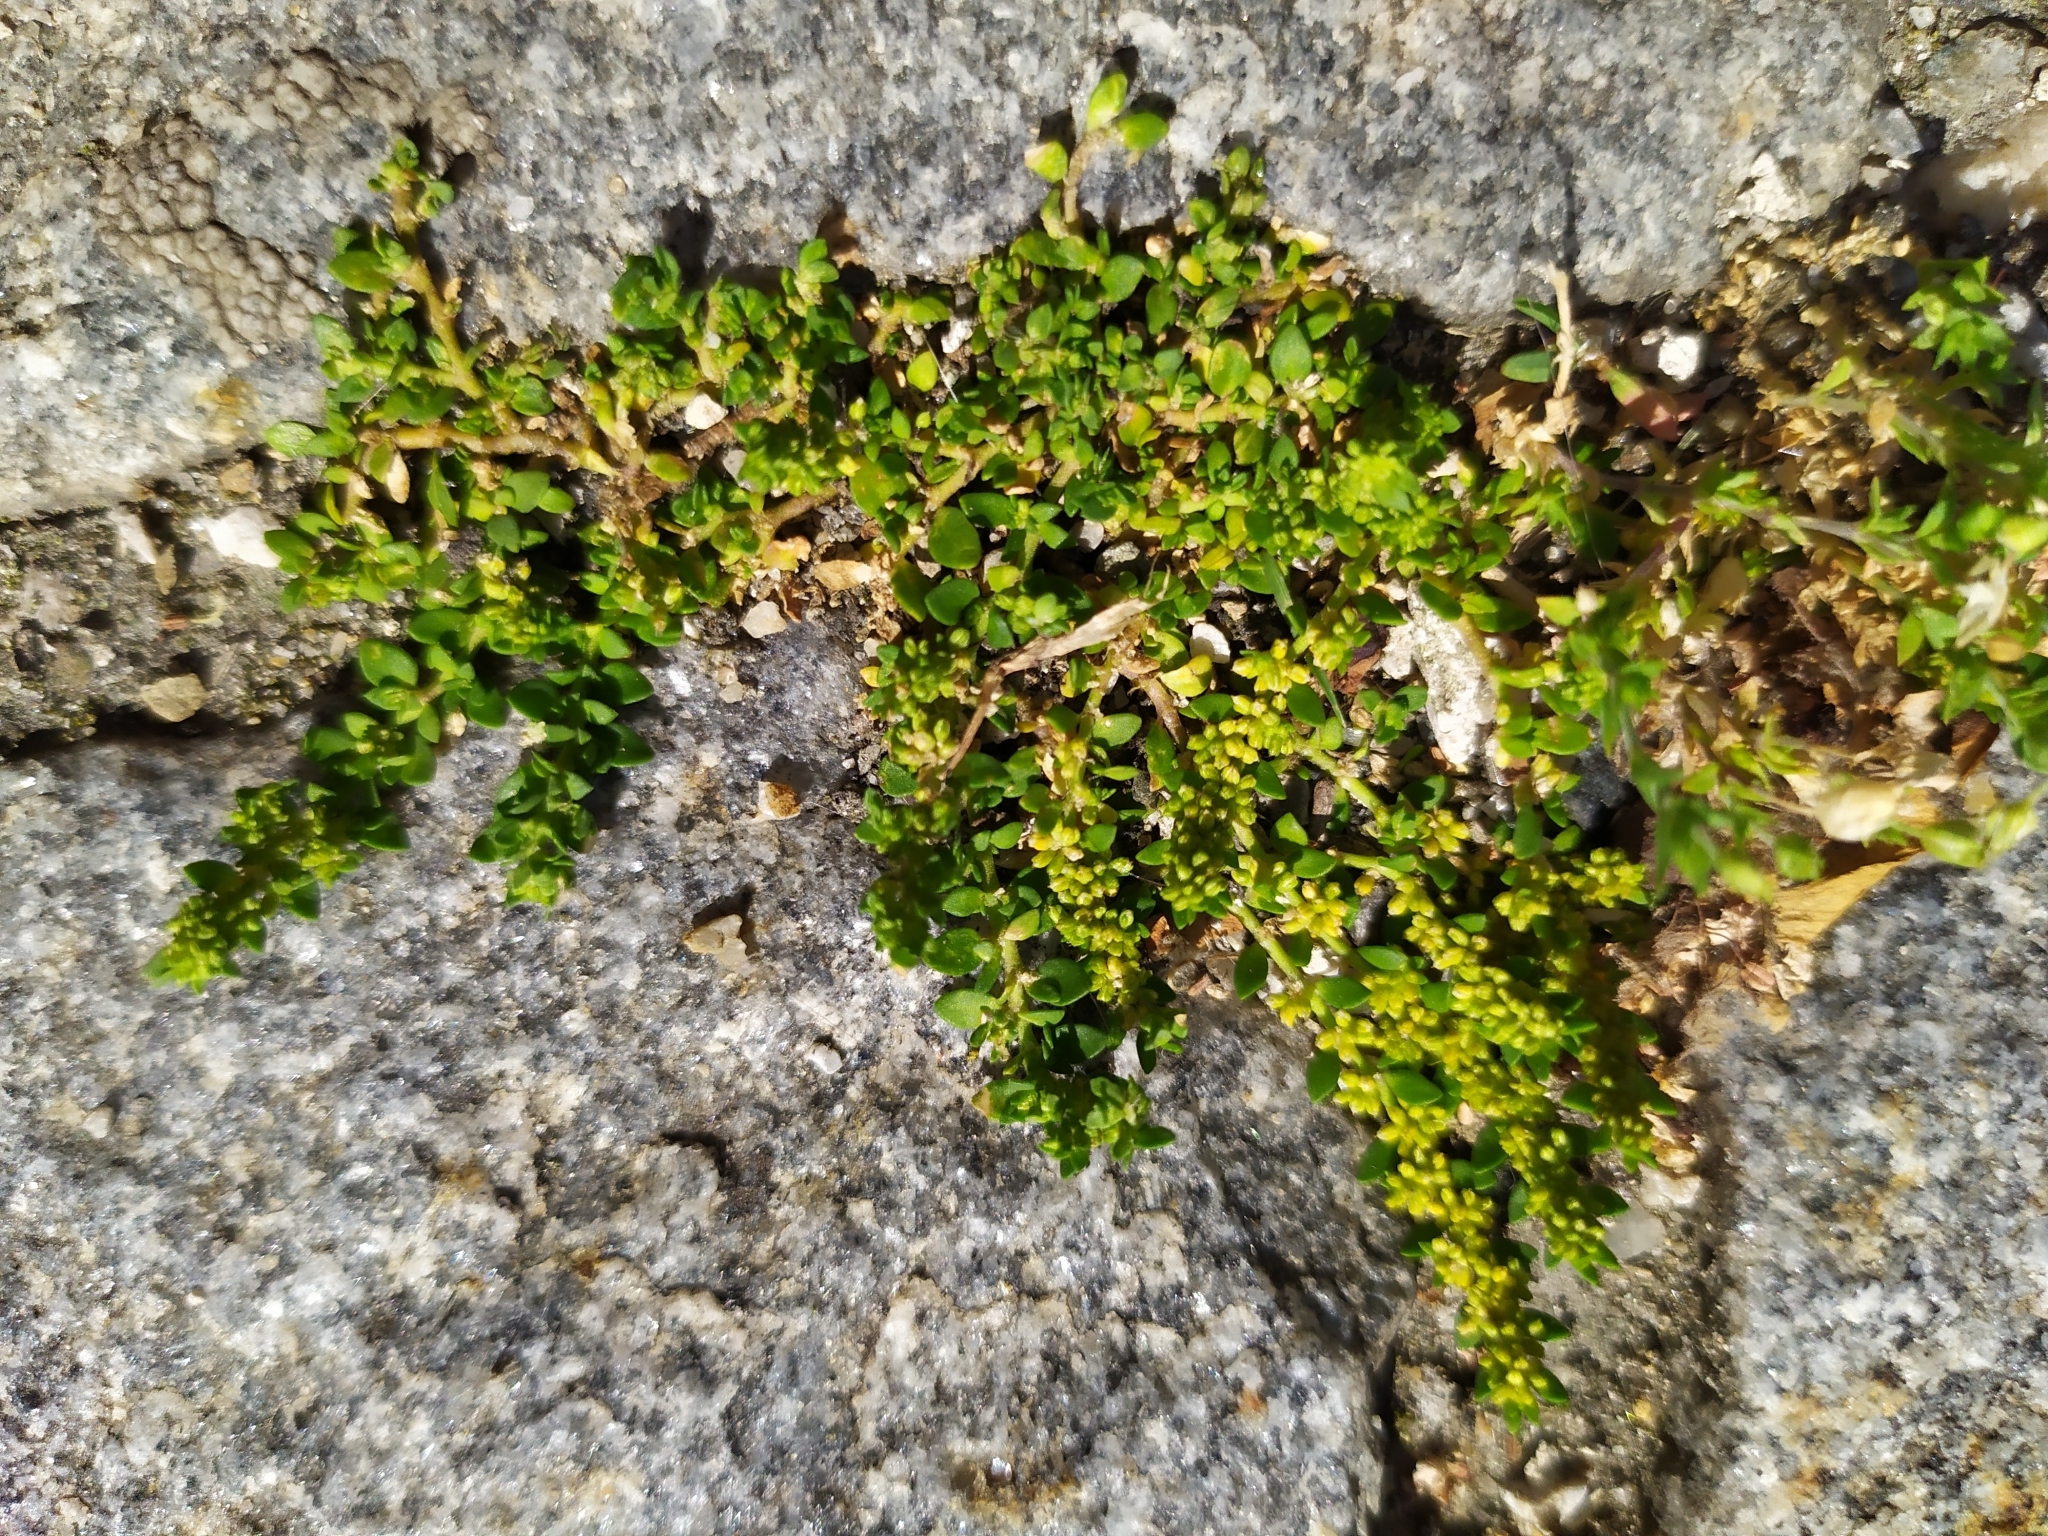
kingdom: Plantae
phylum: Tracheophyta
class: Magnoliopsida
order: Caryophyllales
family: Caryophyllaceae
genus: Herniaria
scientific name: Herniaria glabra
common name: Smooth rupturewort
